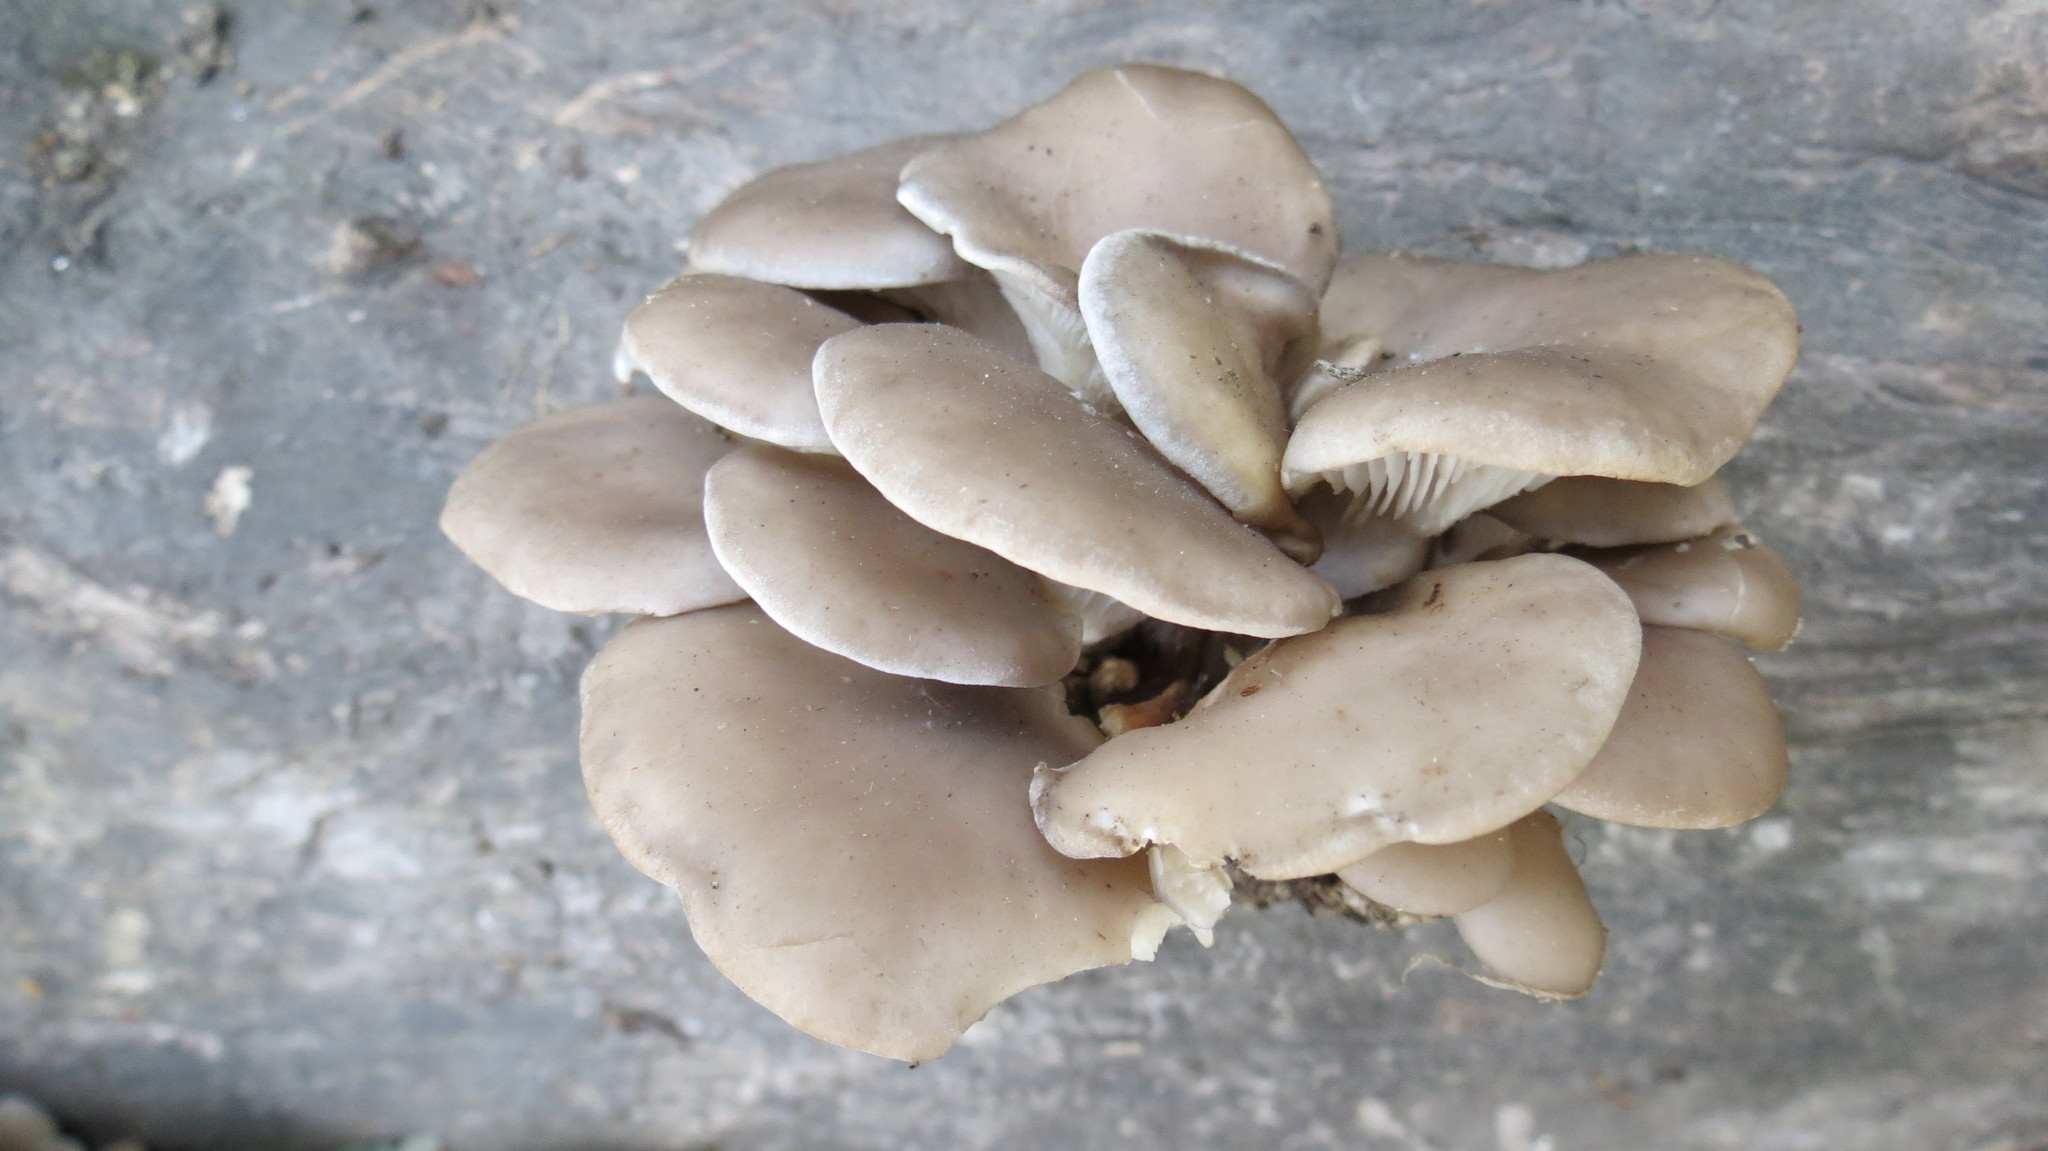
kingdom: Fungi
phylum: Basidiomycota
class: Agaricomycetes
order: Agaricales
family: Pleurotaceae
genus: Pleurotus
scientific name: Pleurotus ostreatus
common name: Oyster mushroom
